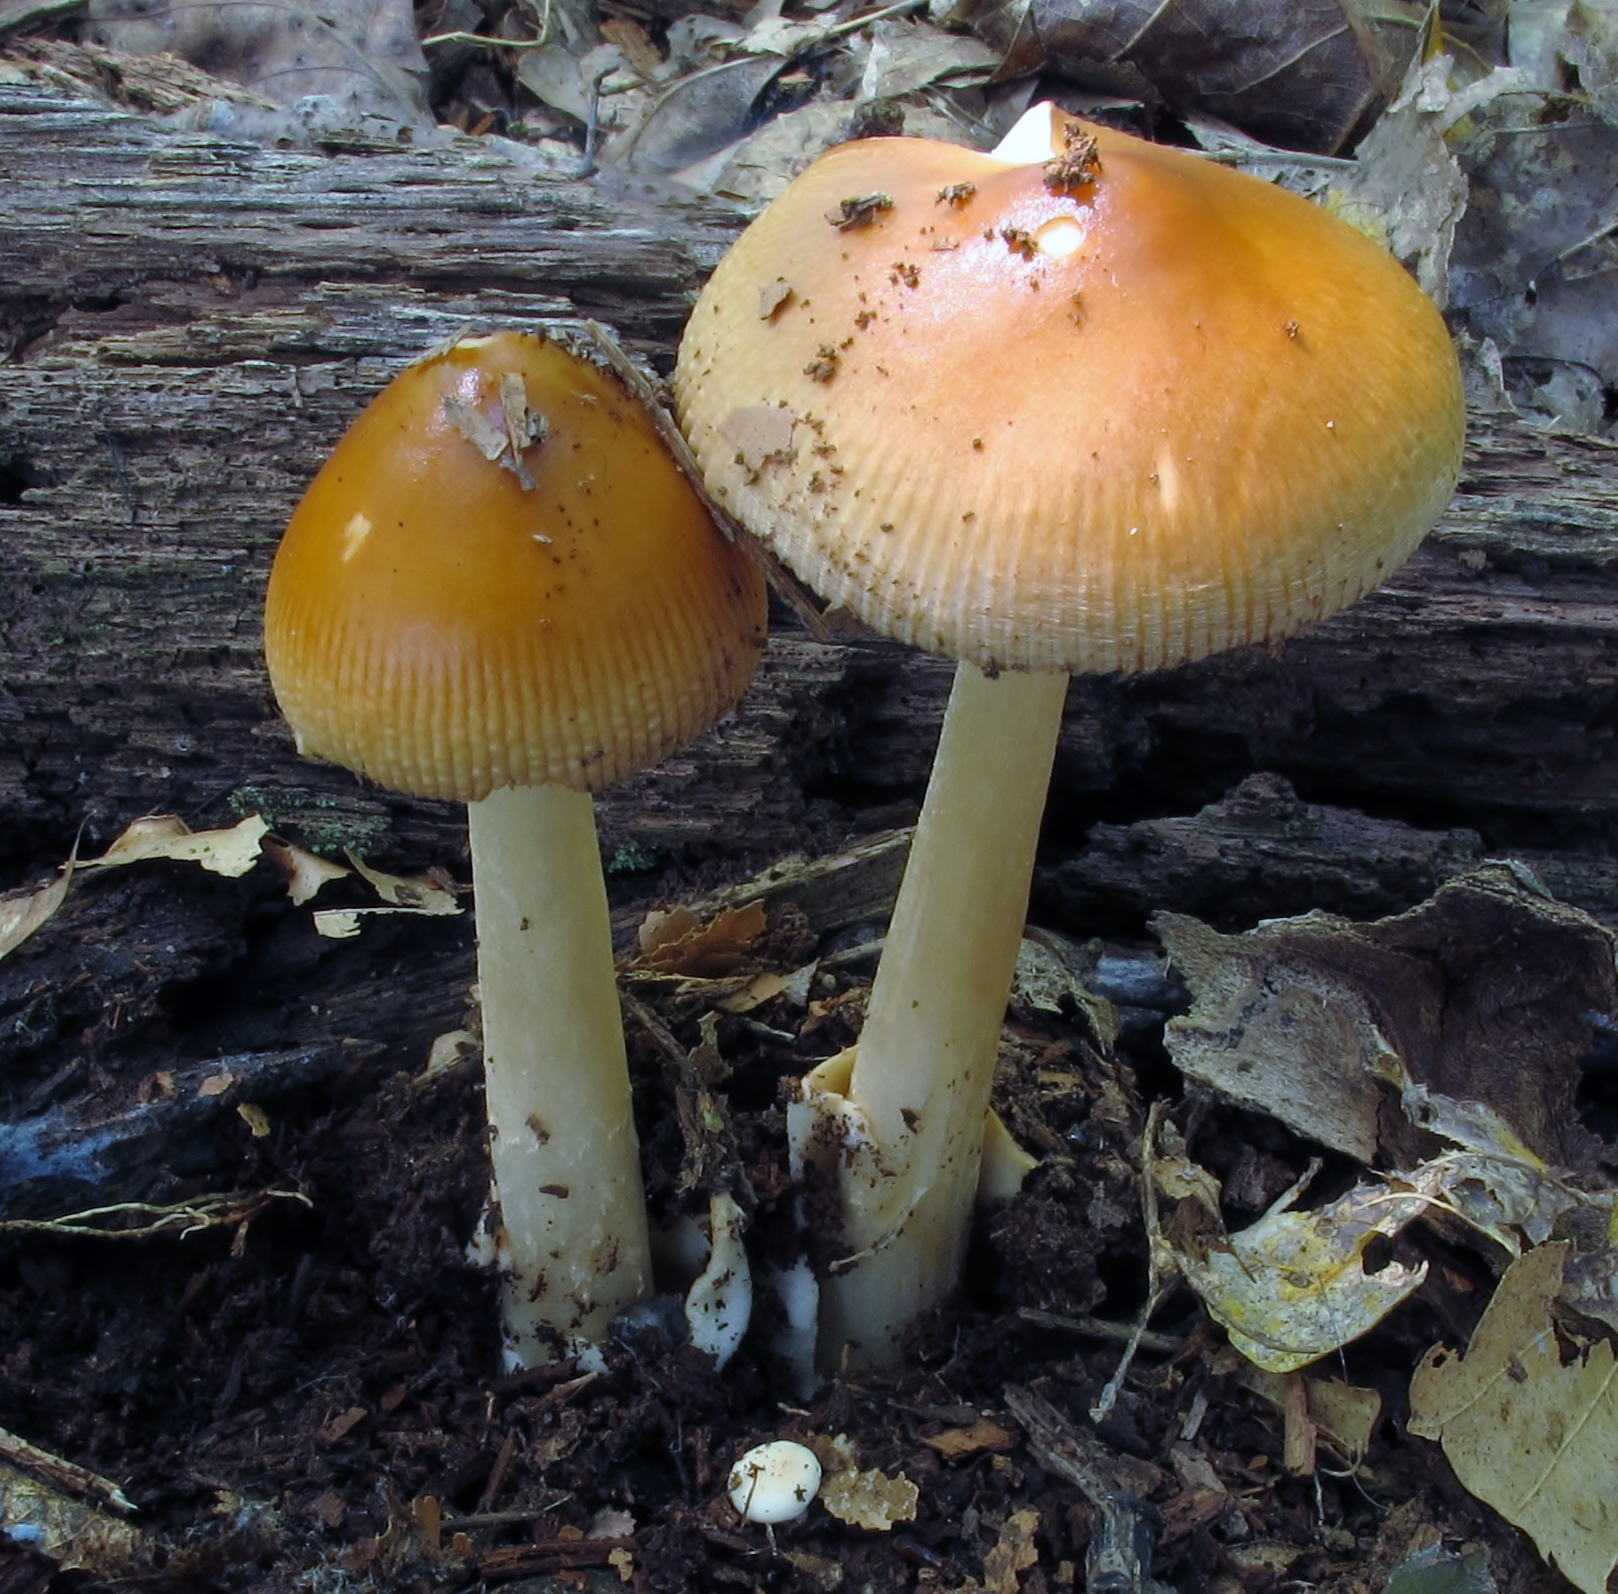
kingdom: Fungi
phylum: Basidiomycota
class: Agaricomycetes
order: Agaricales
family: Amanitaceae
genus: Amanita
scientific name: Amanita fulva
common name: Tawny grisette
